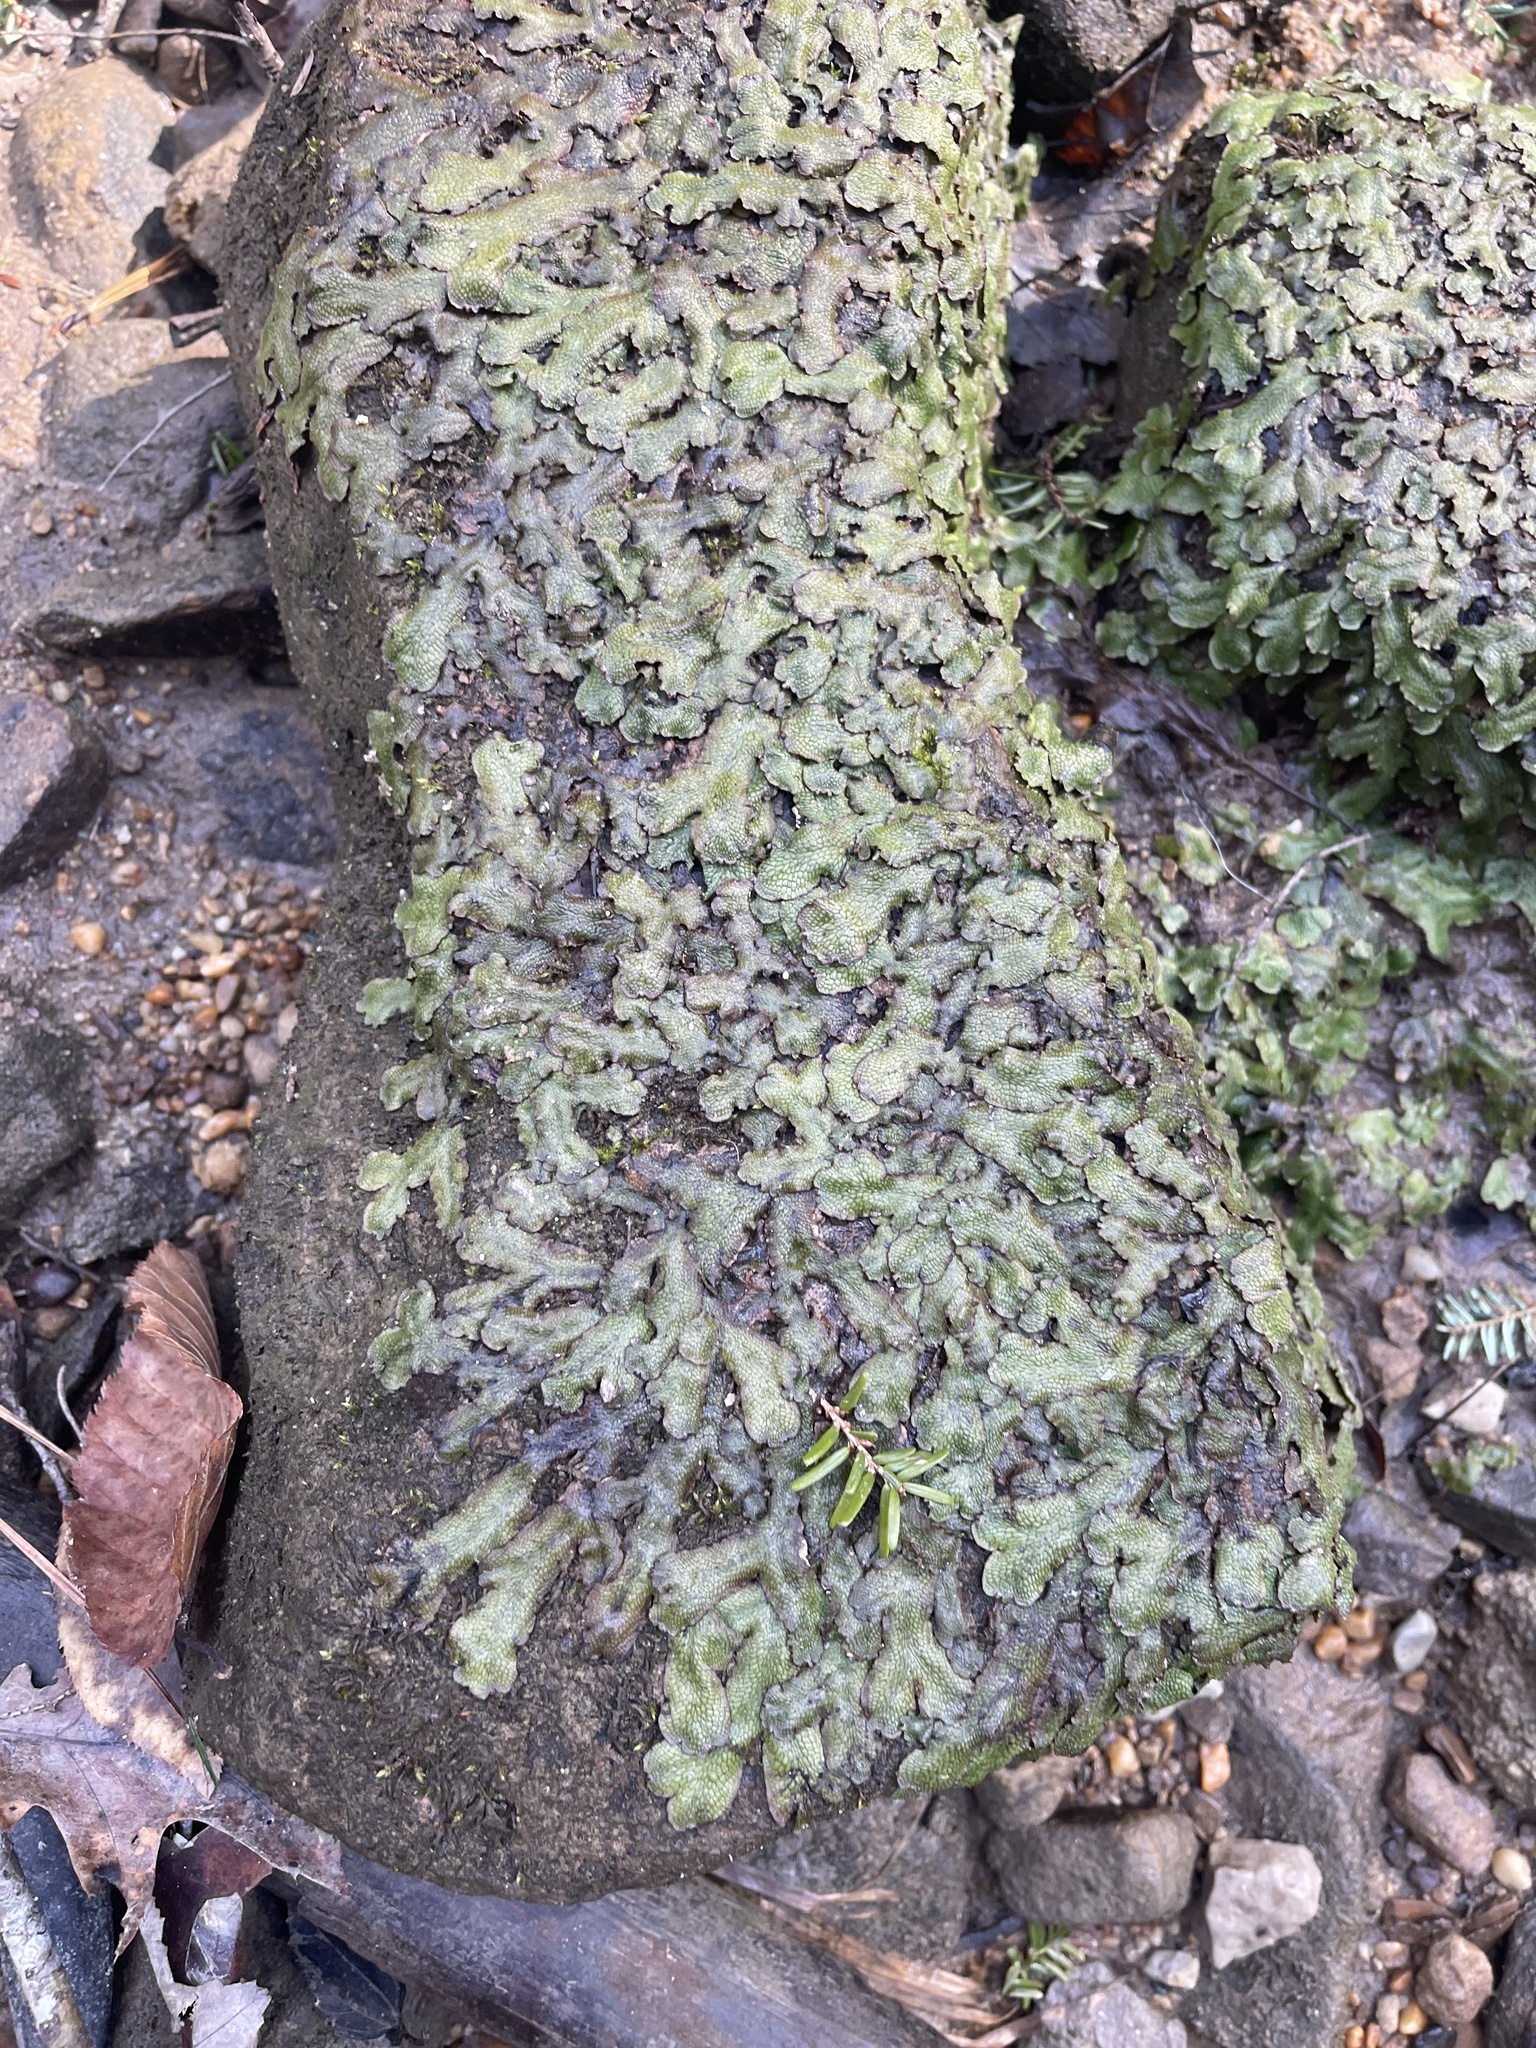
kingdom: Plantae
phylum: Marchantiophyta
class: Marchantiopsida
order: Marchantiales
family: Conocephalaceae
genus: Conocephalum
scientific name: Conocephalum salebrosum
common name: Cat-tongue liverwort
